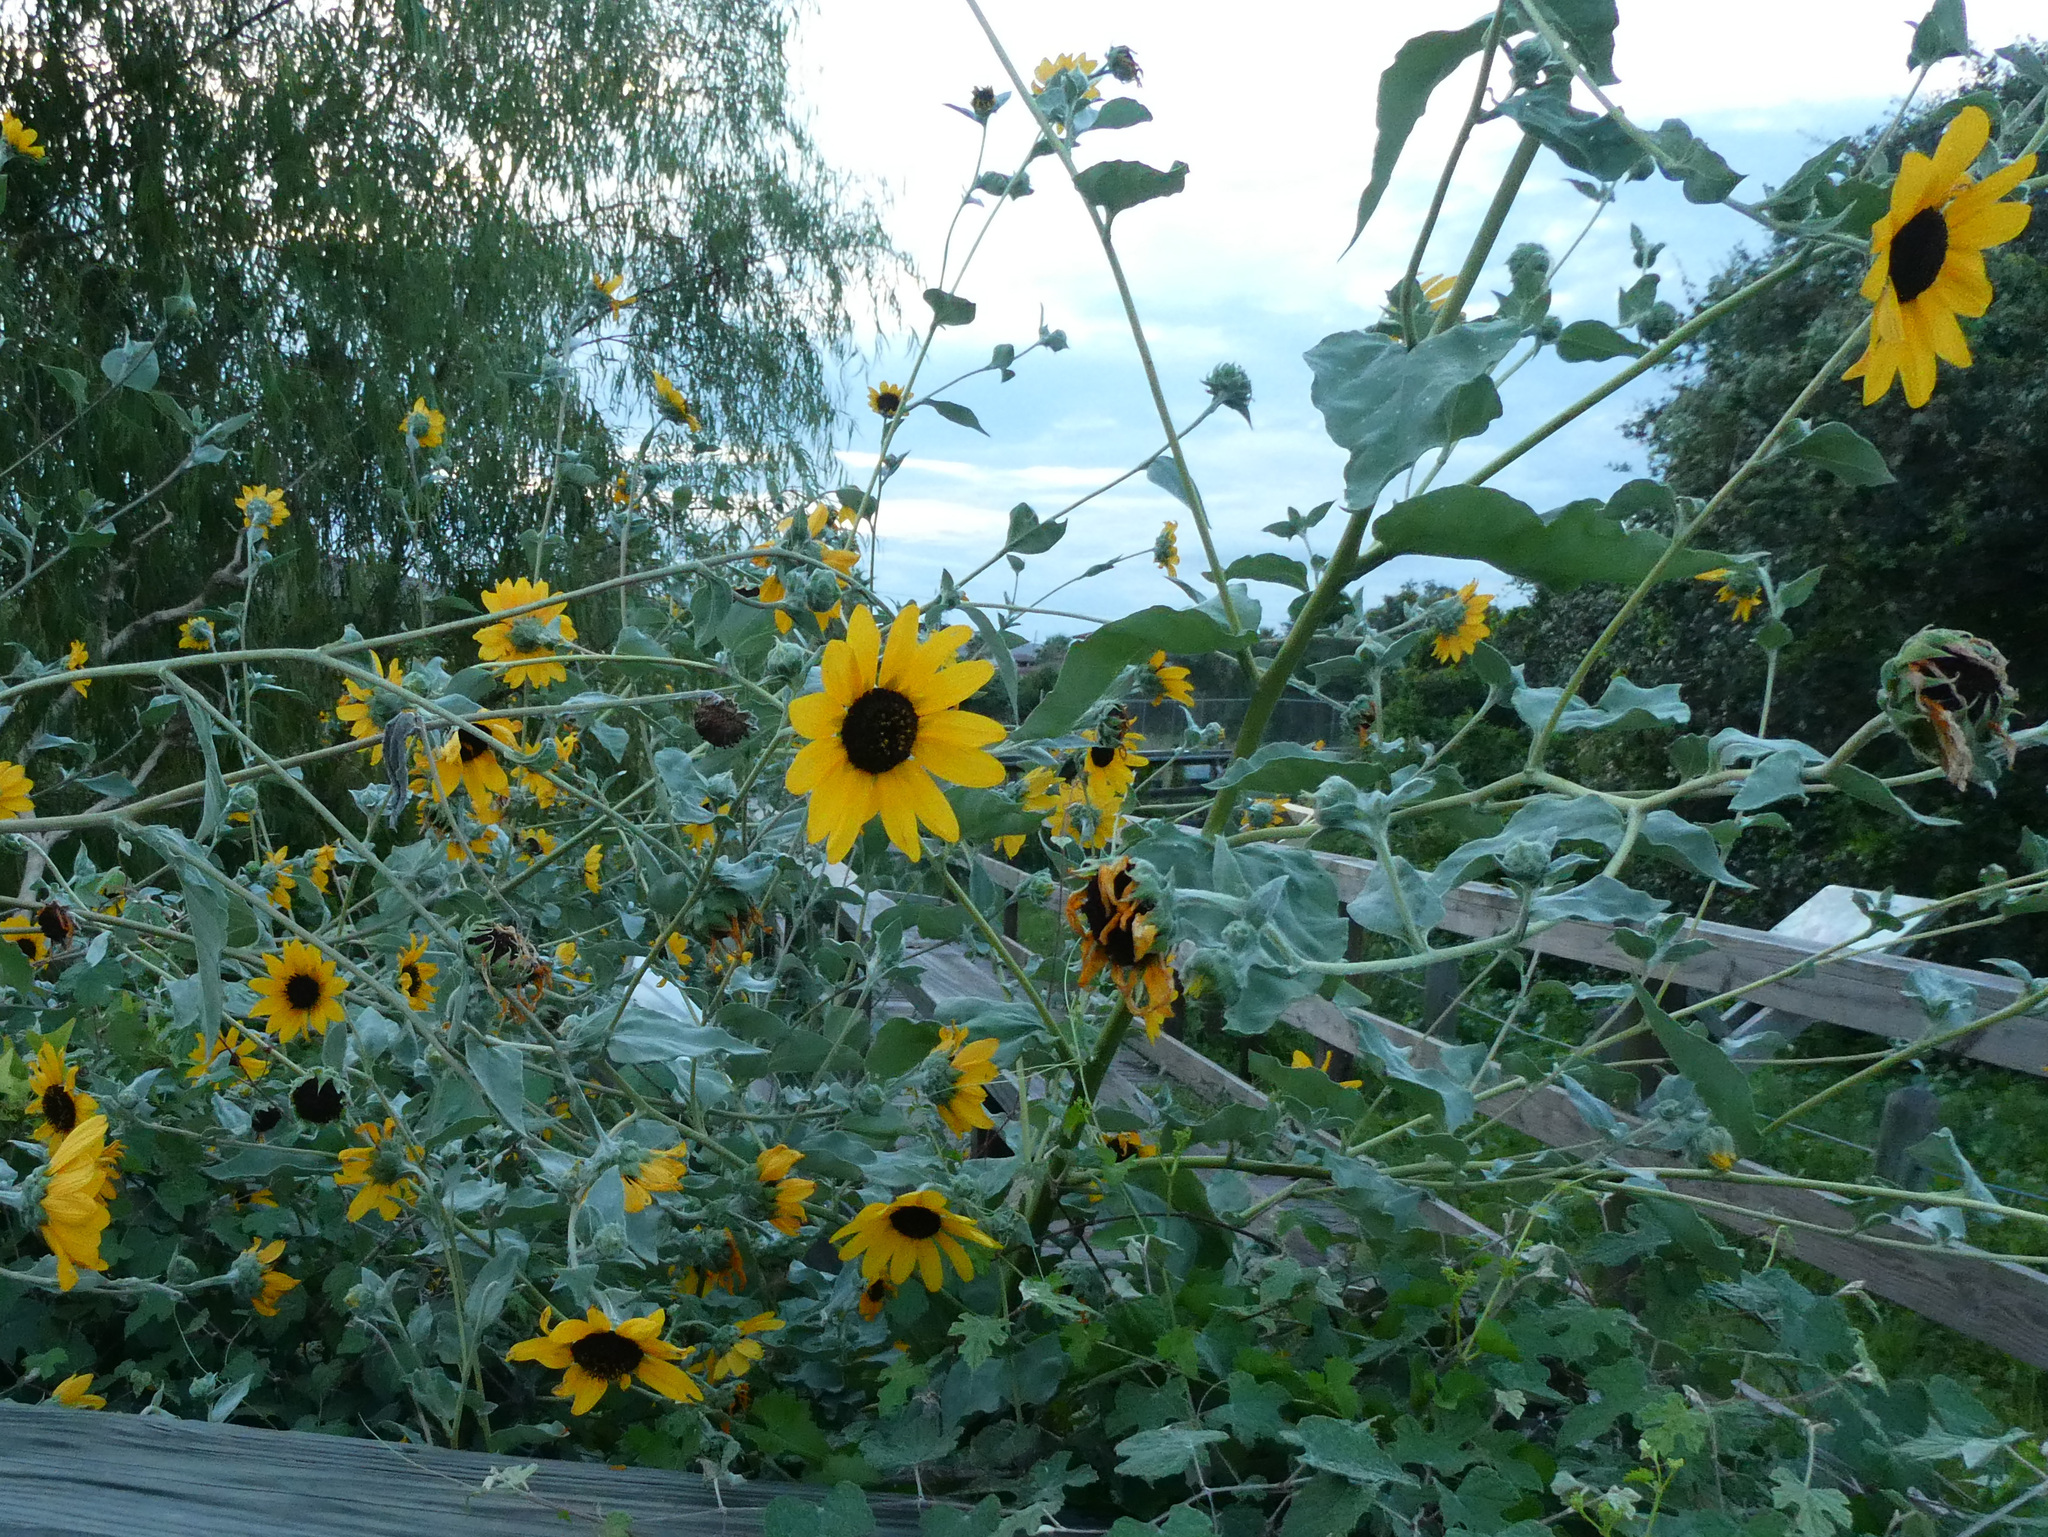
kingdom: Plantae
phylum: Tracheophyta
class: Magnoliopsida
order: Asterales
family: Asteraceae
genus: Helianthus
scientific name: Helianthus argophyllus
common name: Silverleaf sunflower
